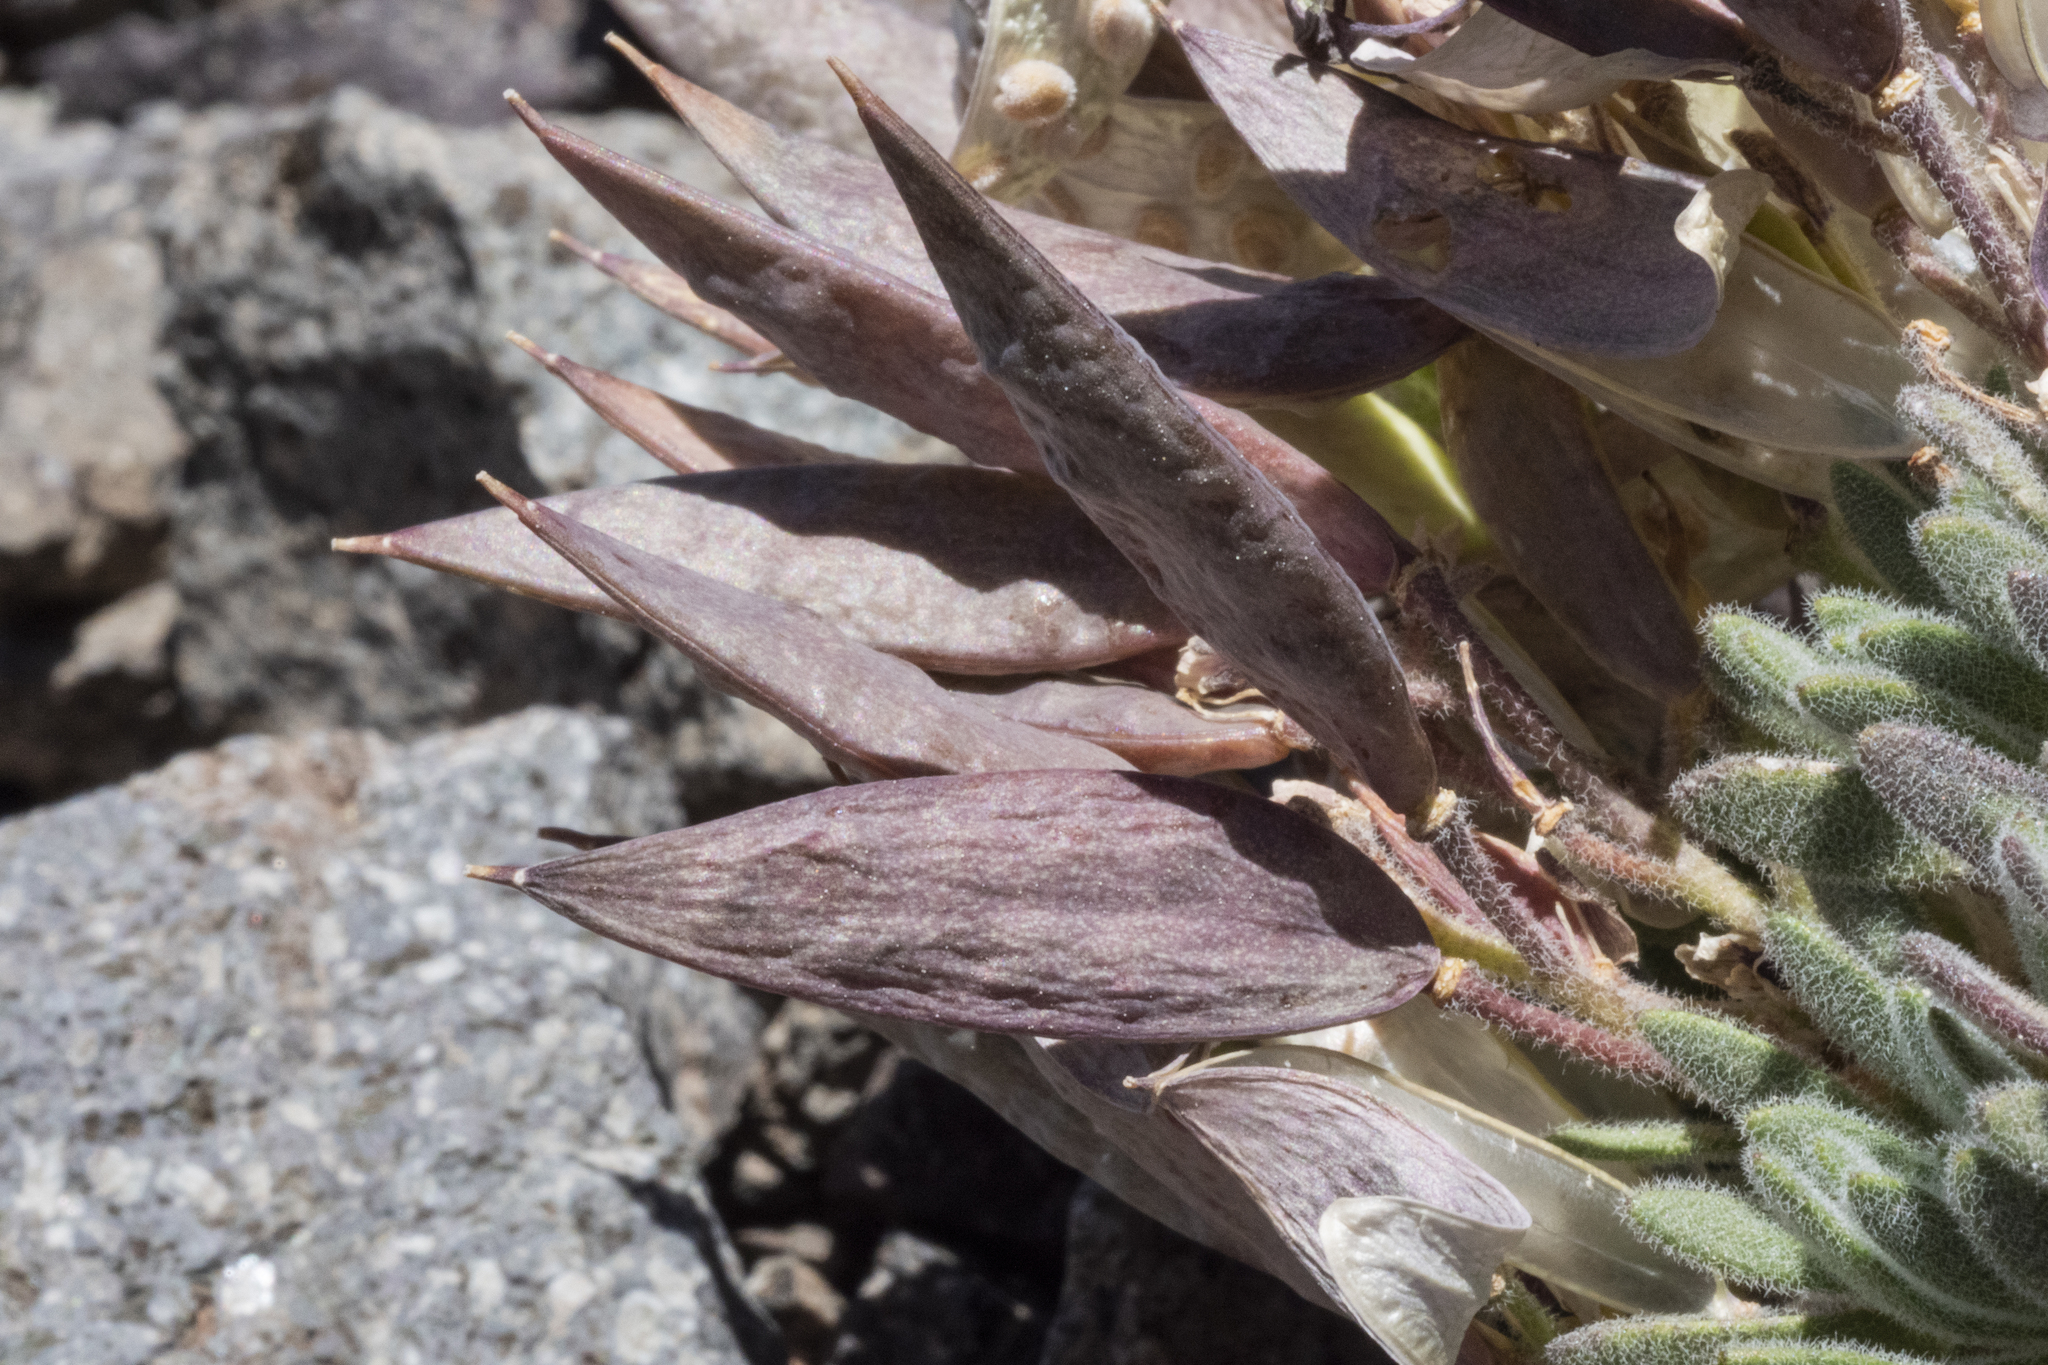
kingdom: Plantae
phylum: Tracheophyta
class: Magnoliopsida
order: Brassicales
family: Brassicaceae
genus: Anelsonia
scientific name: Anelsonia eurycarpa
